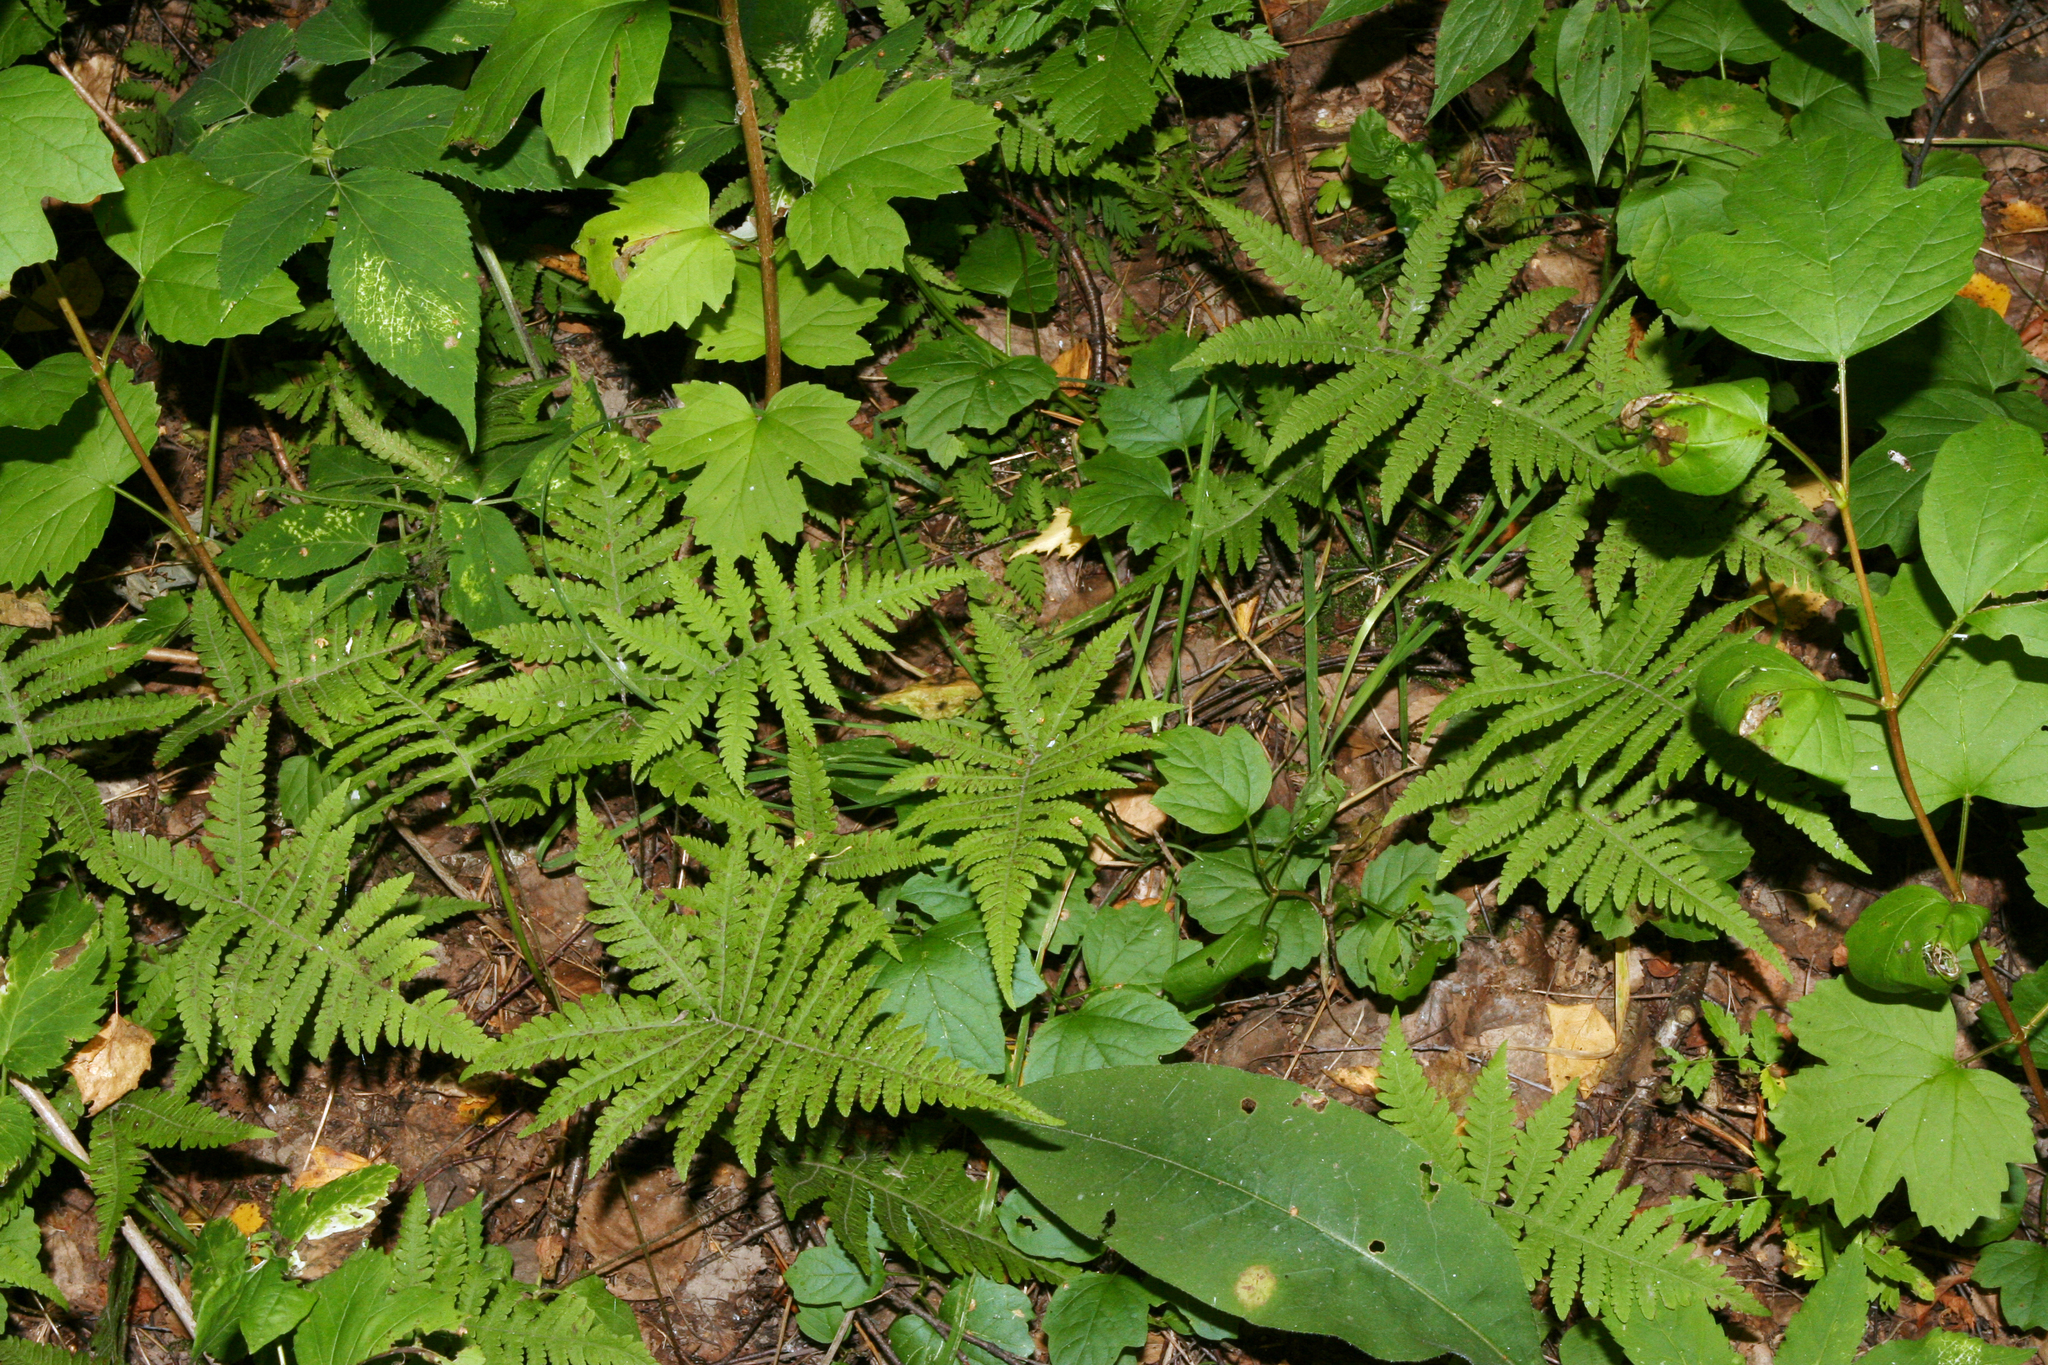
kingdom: Plantae
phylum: Tracheophyta
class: Polypodiopsida
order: Polypodiales
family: Thelypteridaceae
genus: Phegopteris
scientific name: Phegopteris connectilis
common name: Beech fern
